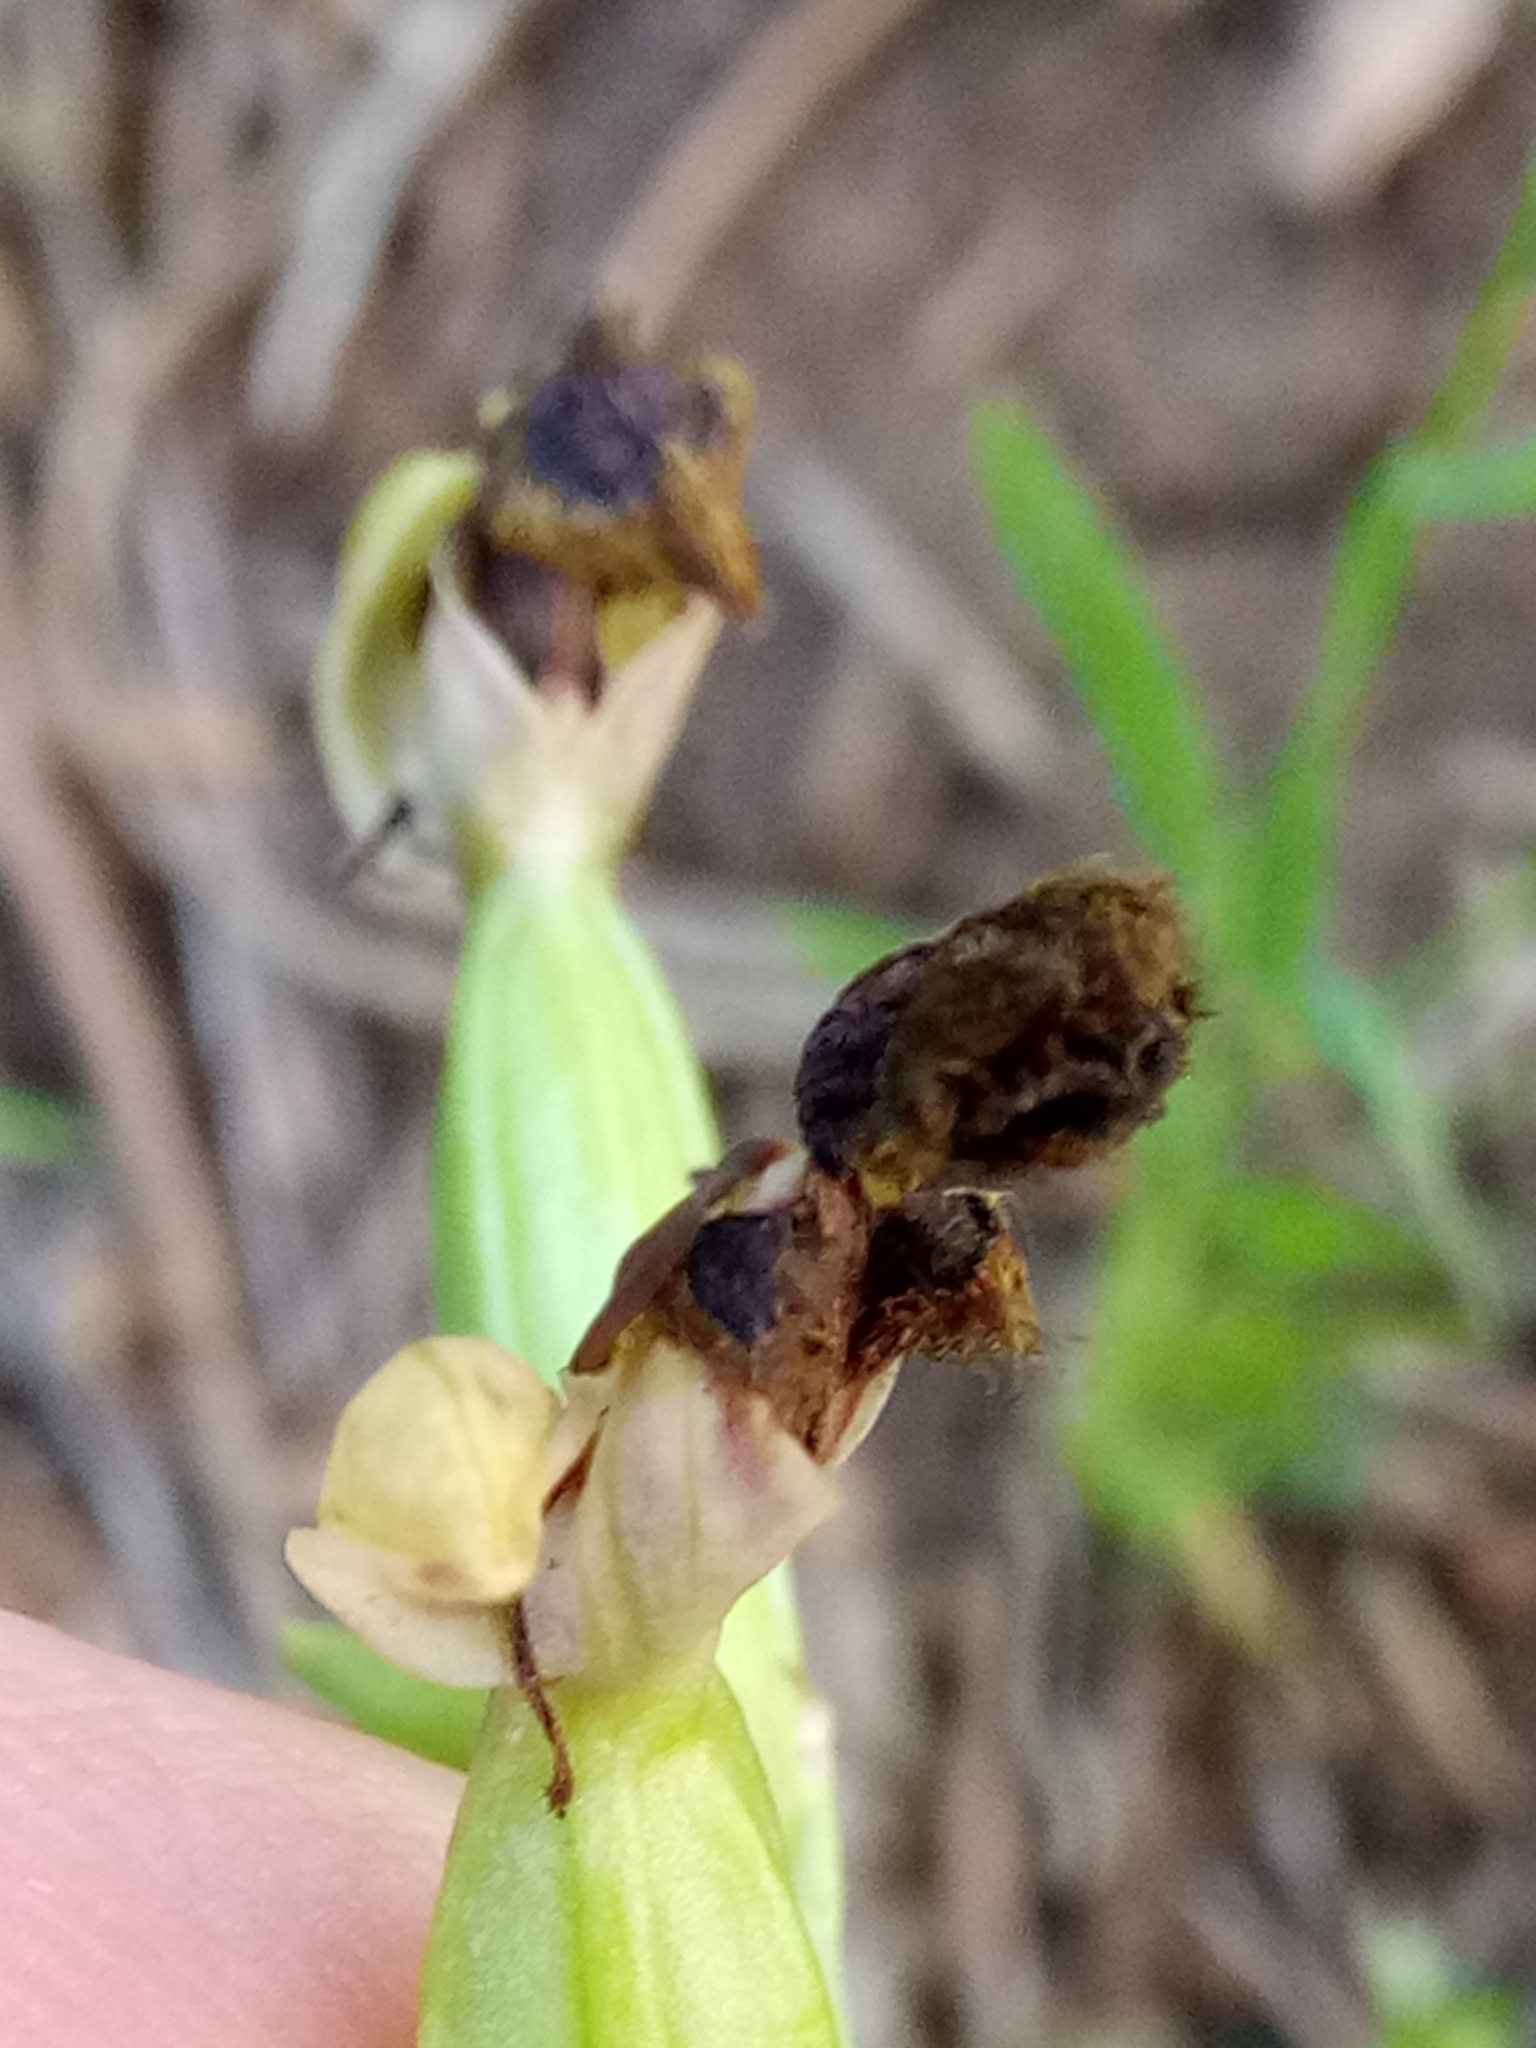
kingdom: Plantae
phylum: Tracheophyta
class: Liliopsida
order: Asparagales
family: Orchidaceae
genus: Ophrys
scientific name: Ophrys fusca
